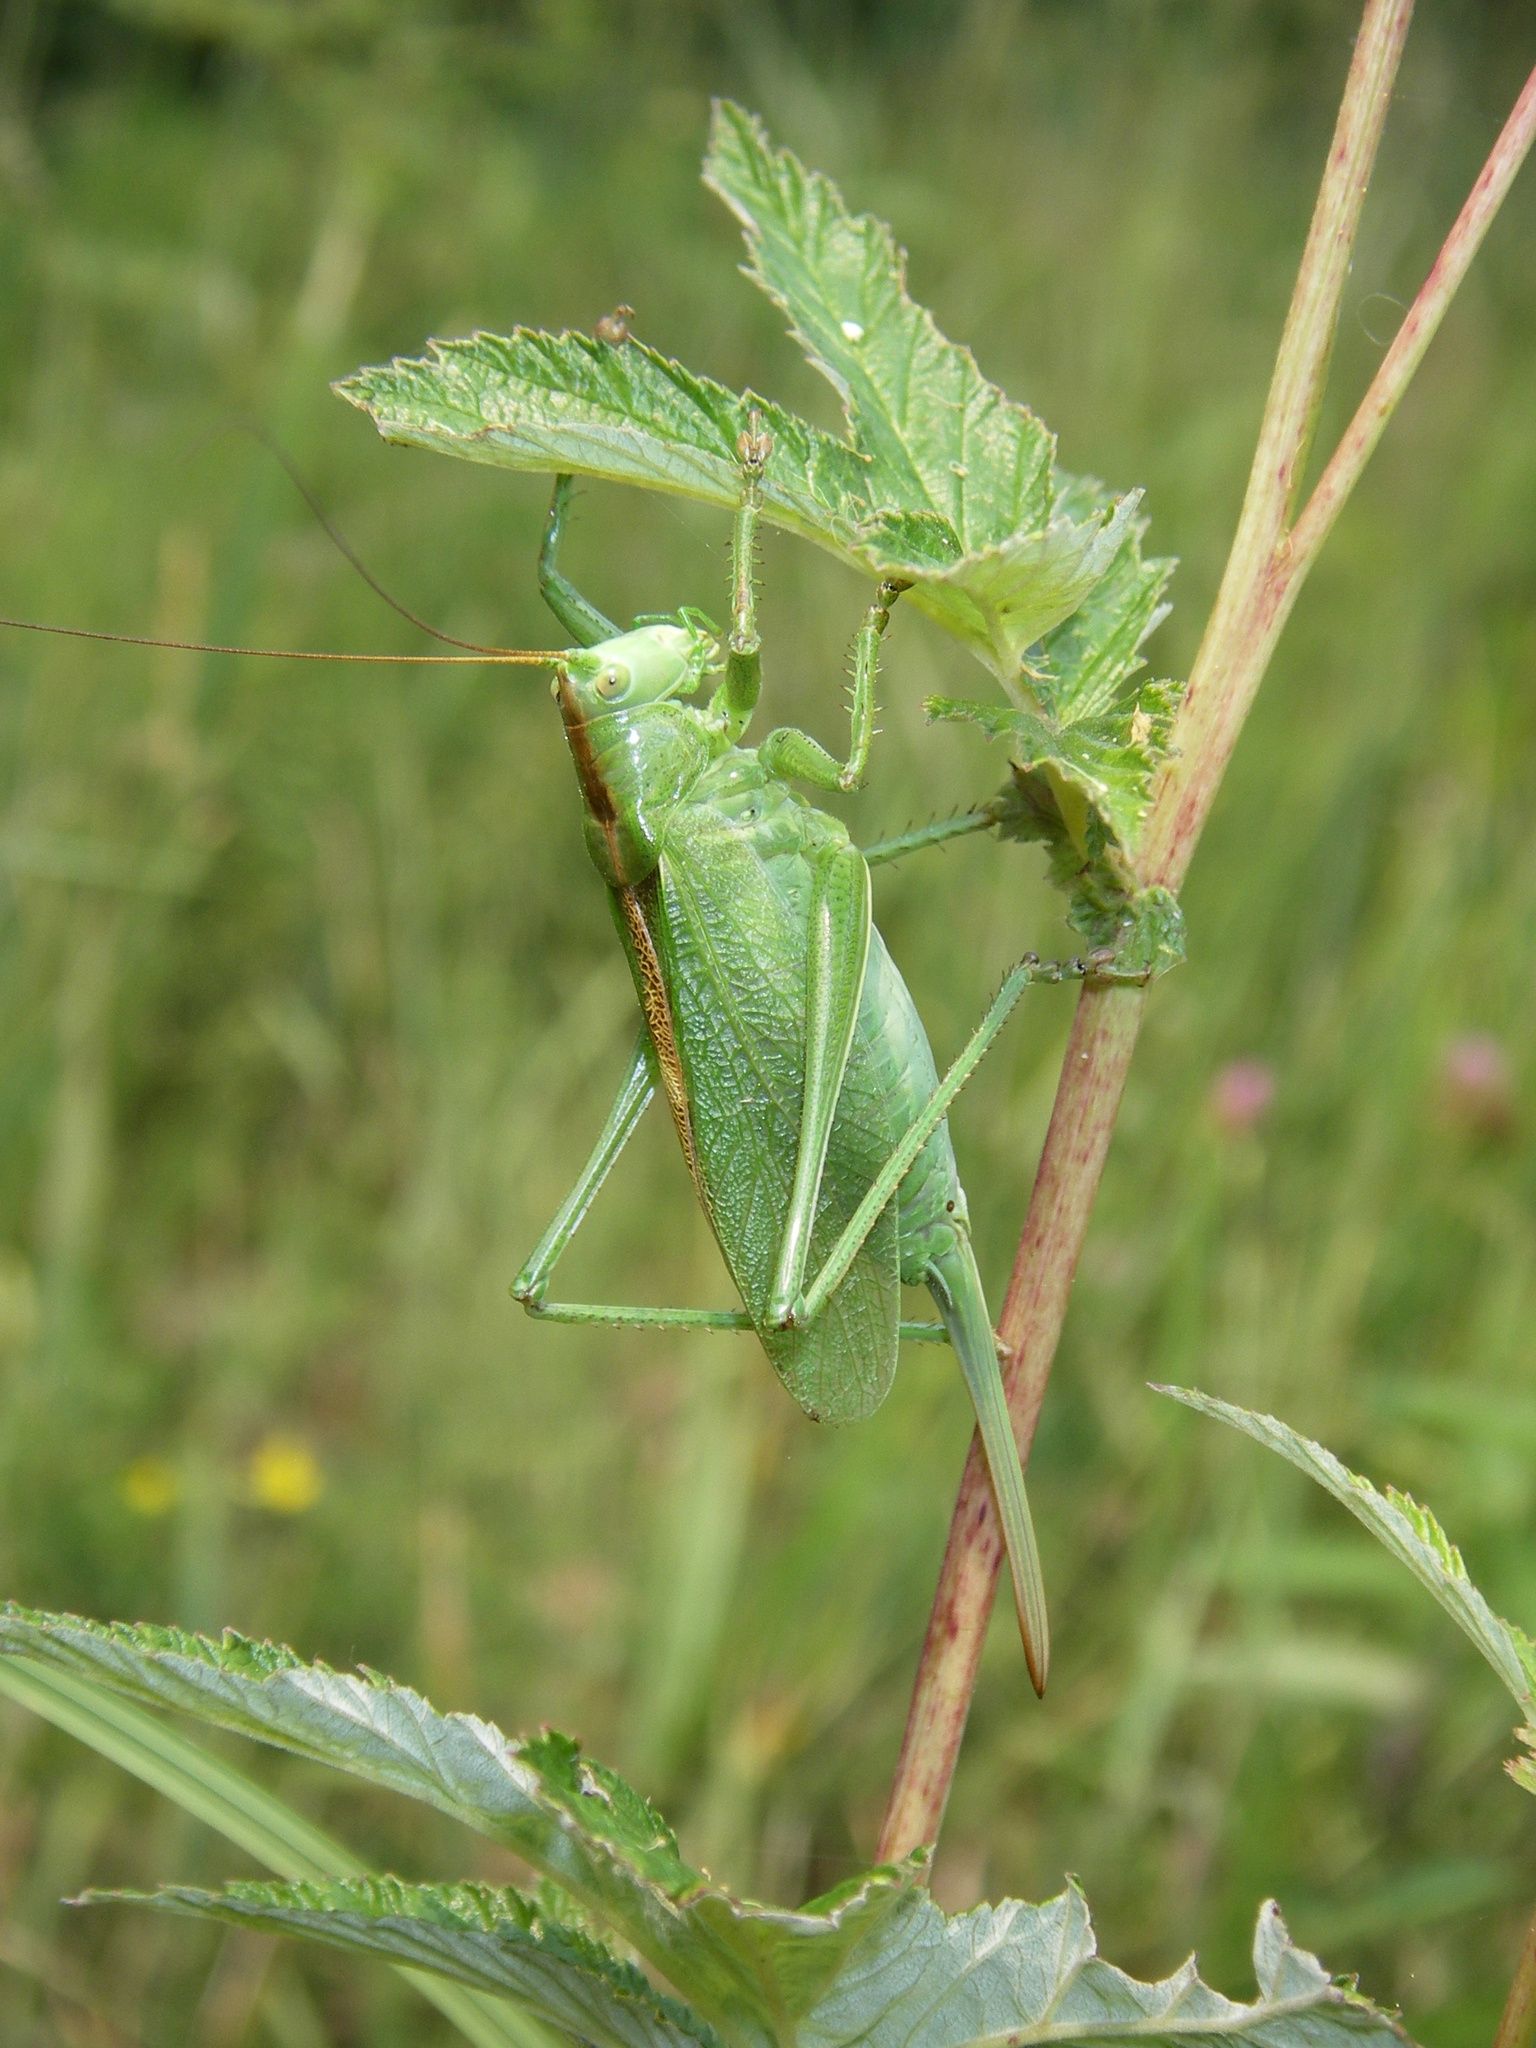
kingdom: Animalia
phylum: Arthropoda
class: Insecta
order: Orthoptera
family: Tettigoniidae
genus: Tettigonia
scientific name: Tettigonia cantans
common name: Upland green bush-cricket
